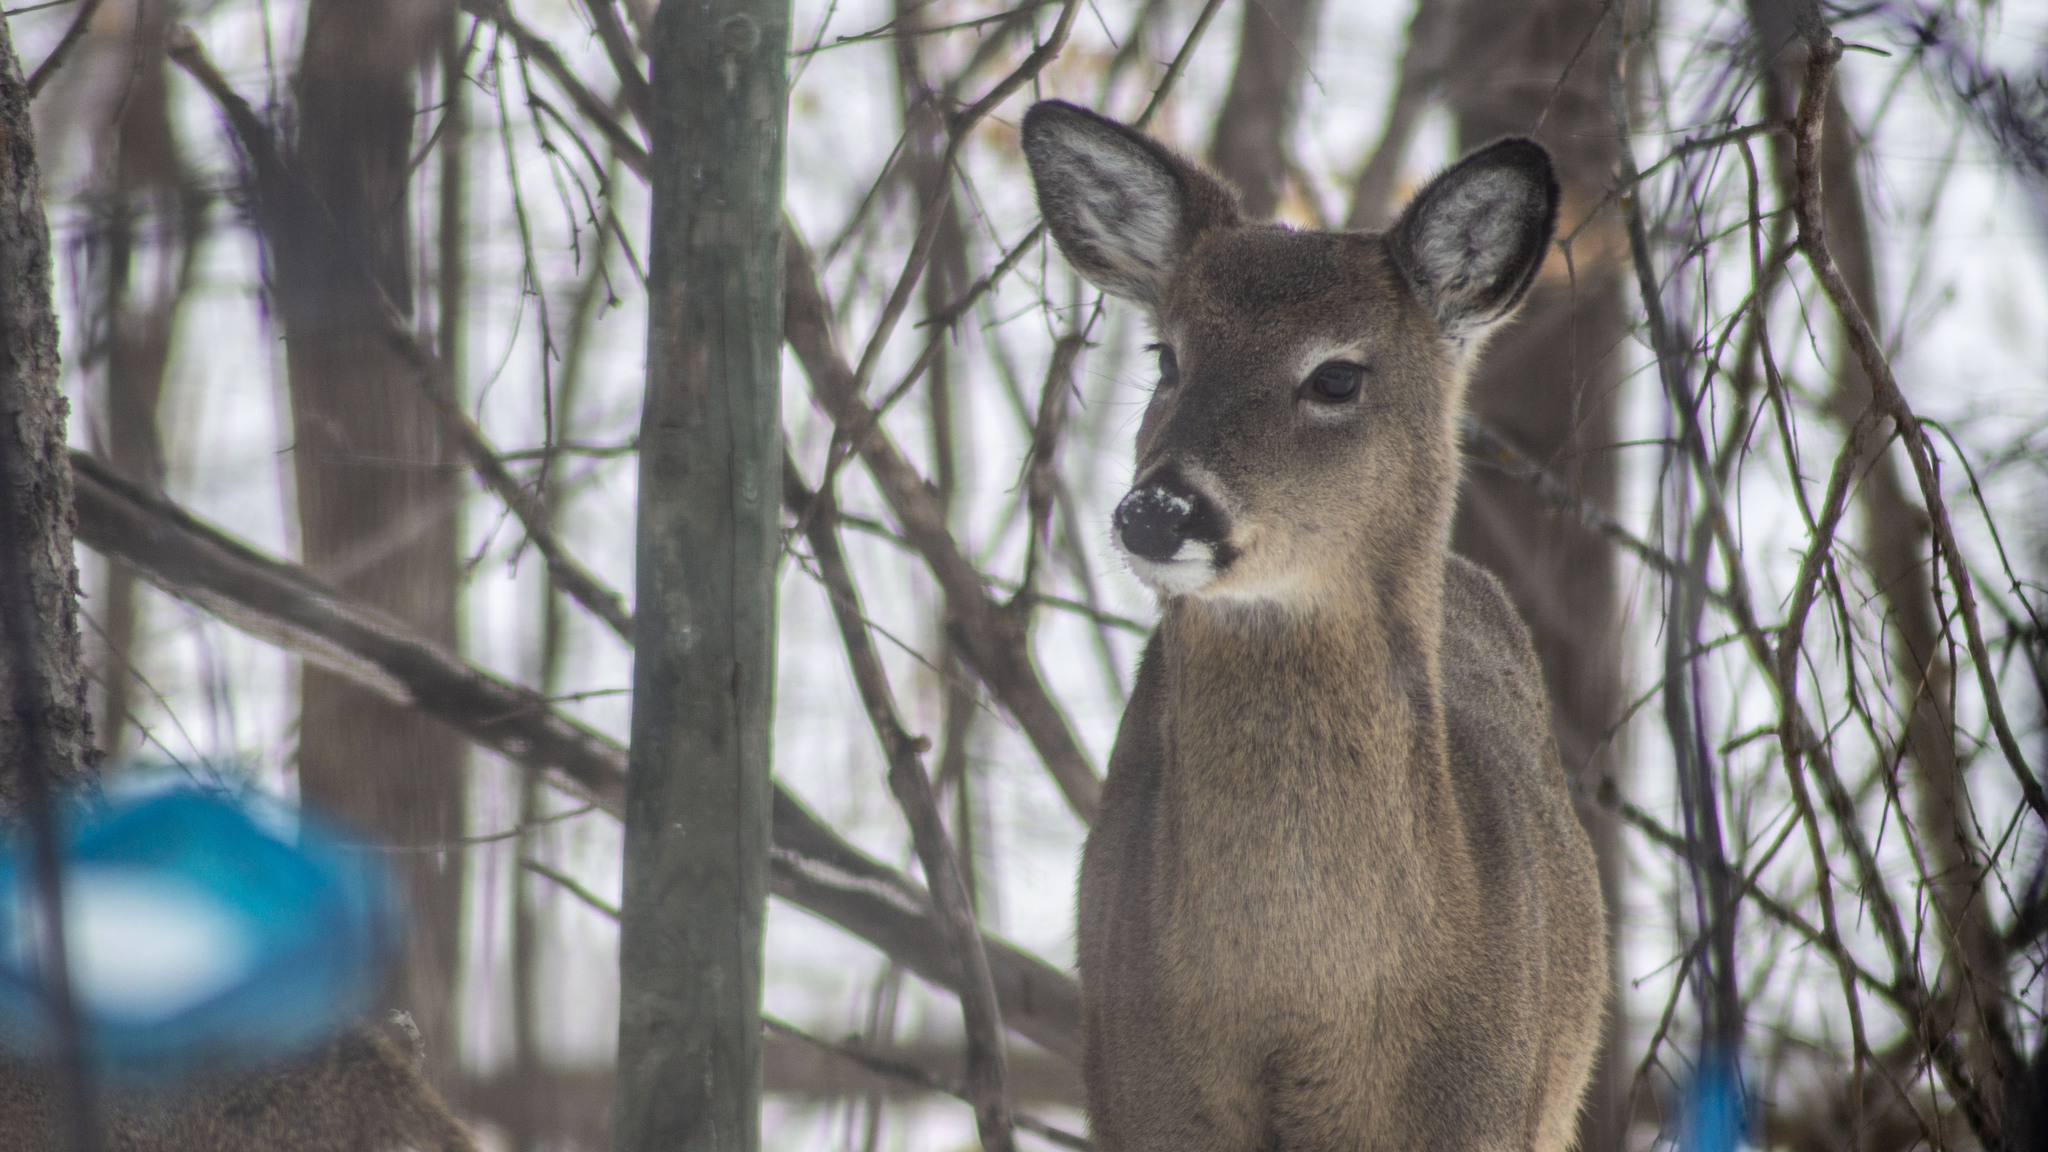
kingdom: Animalia
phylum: Chordata
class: Mammalia
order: Artiodactyla
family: Cervidae
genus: Odocoileus
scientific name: Odocoileus virginianus
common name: White-tailed deer
